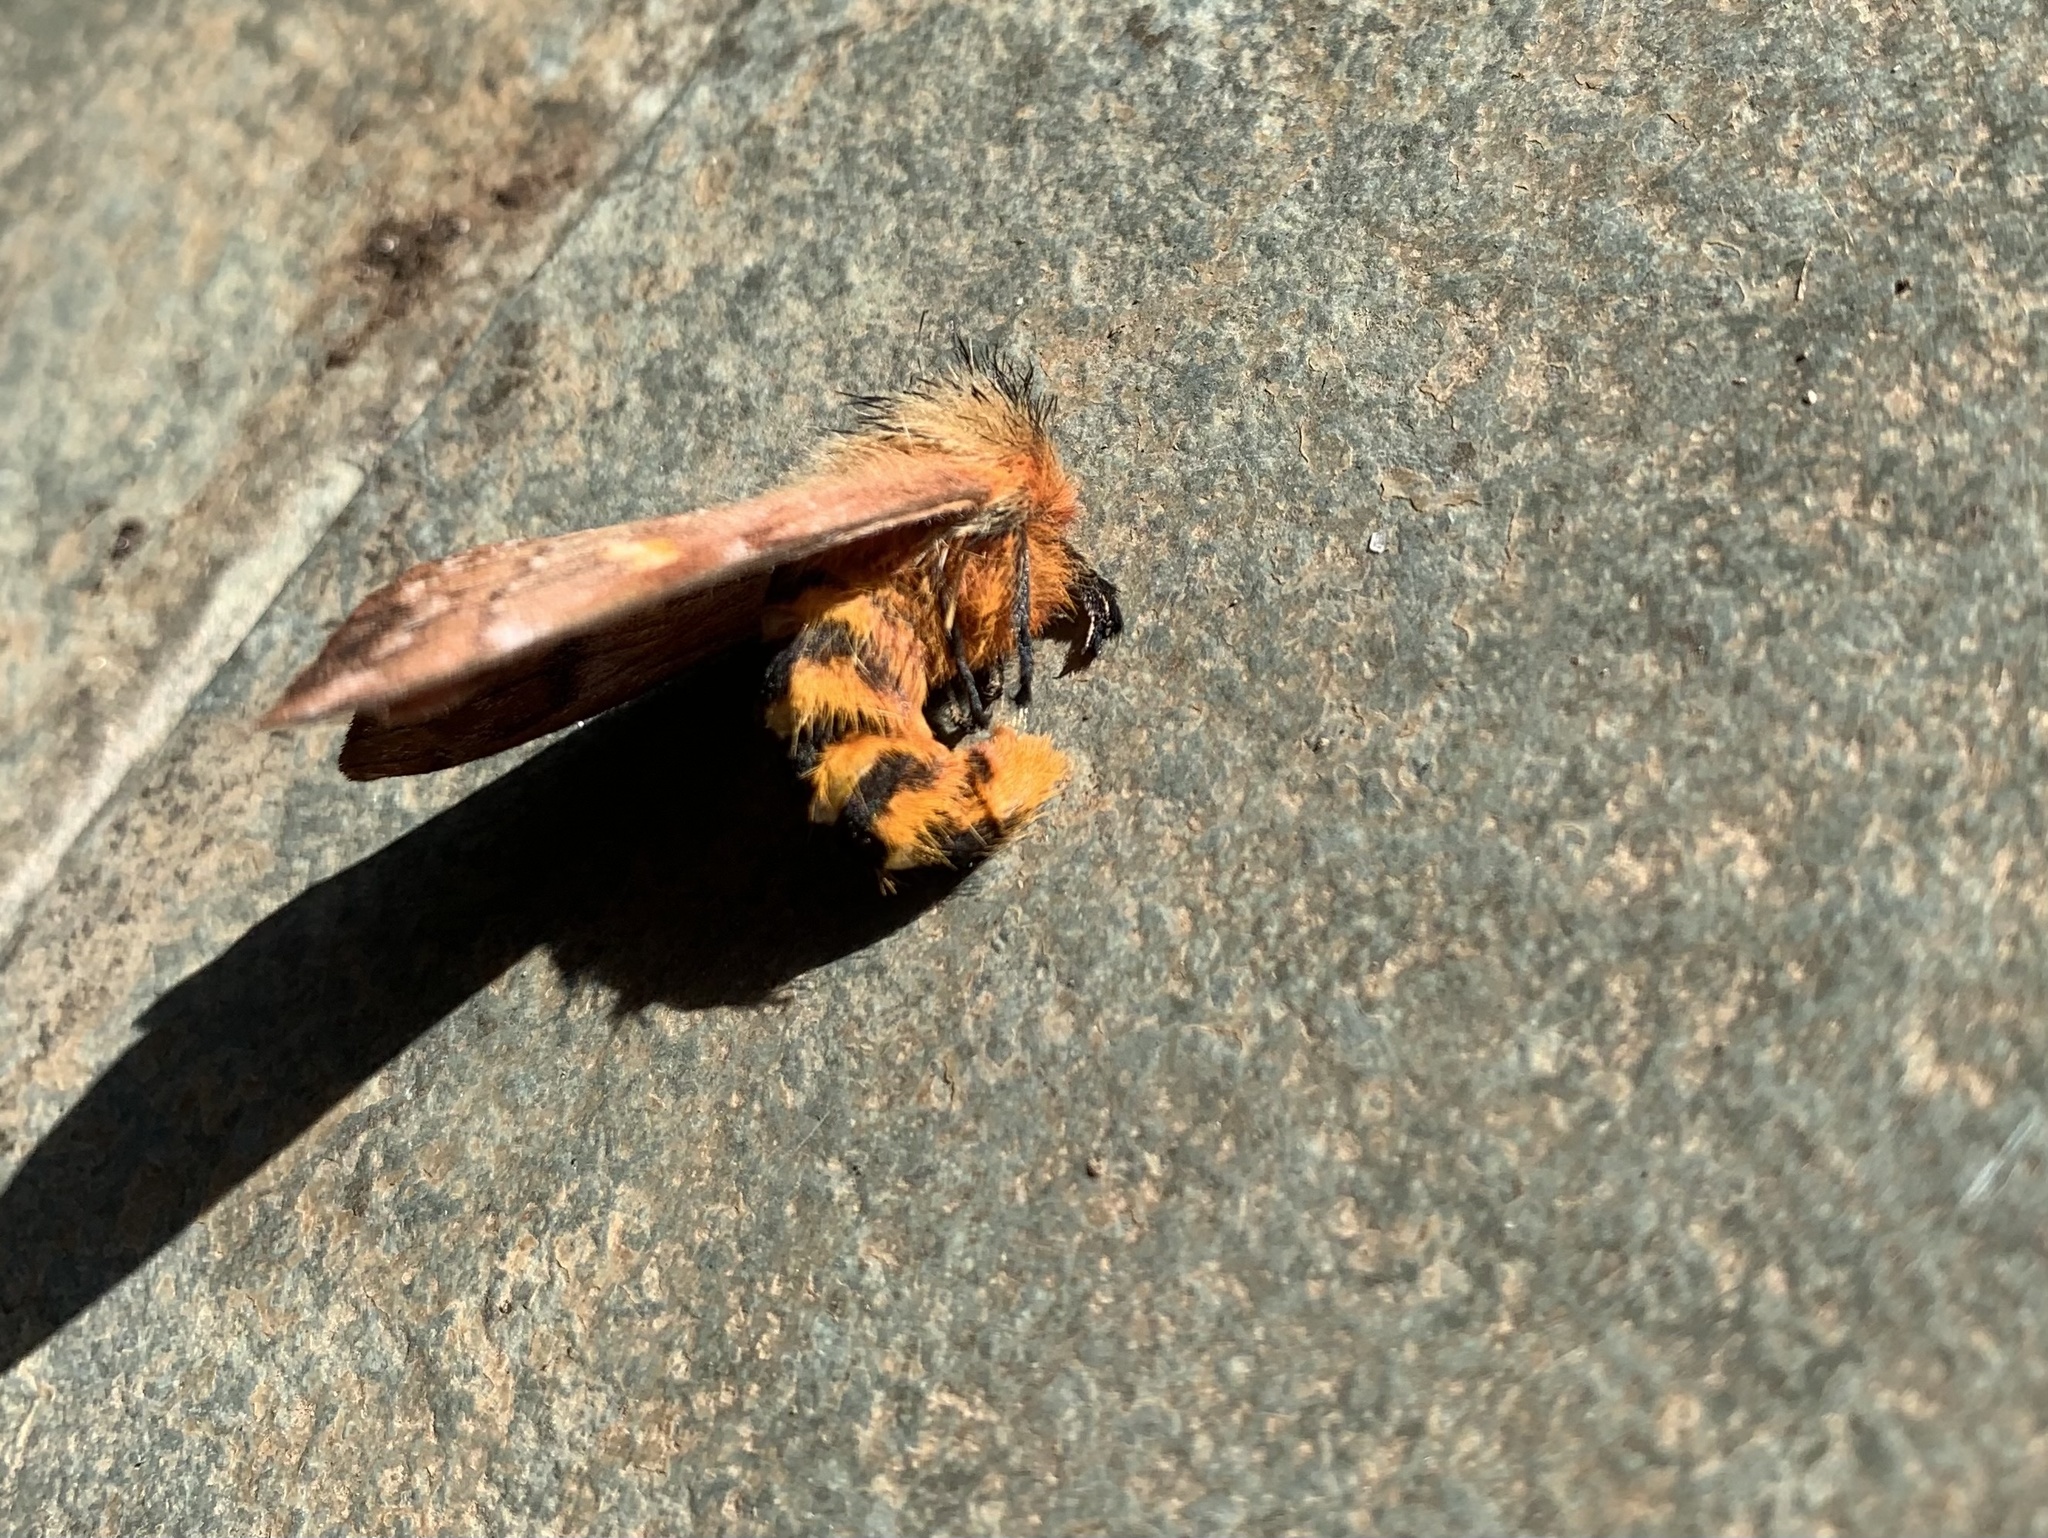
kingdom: Animalia
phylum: Arthropoda
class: Insecta
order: Lepidoptera
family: Saturniidae
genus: Ormiscodes
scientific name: Ormiscodes amphinome
